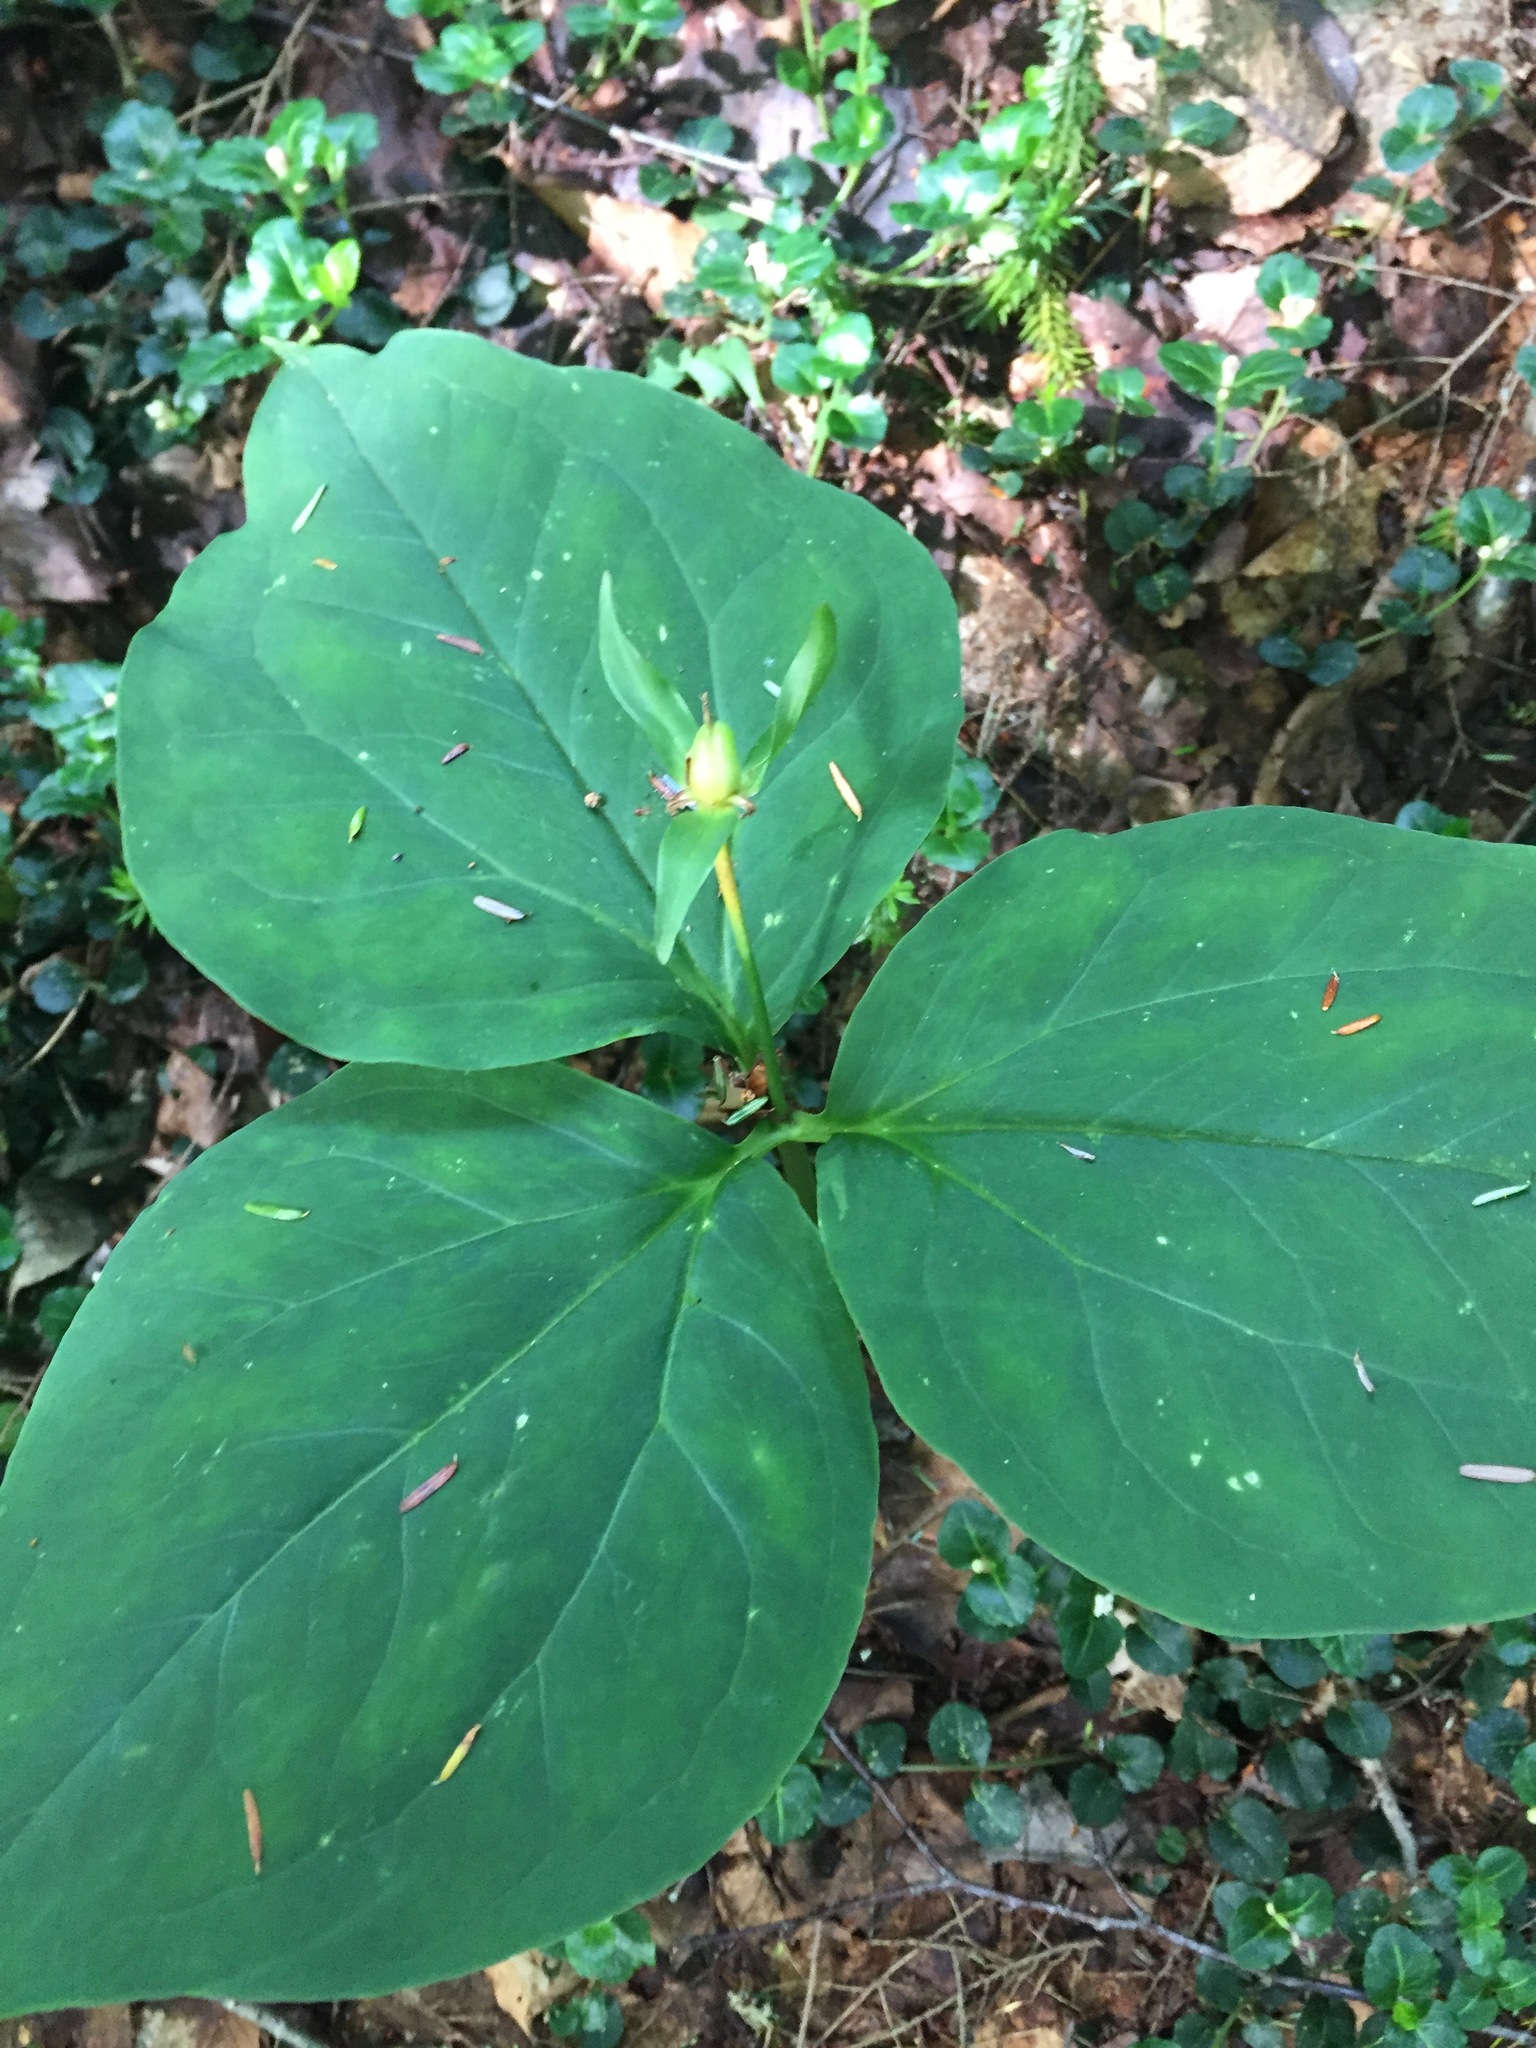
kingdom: Plantae
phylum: Tracheophyta
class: Liliopsida
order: Liliales
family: Melanthiaceae
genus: Trillium
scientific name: Trillium undulatum
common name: Paint trillium
